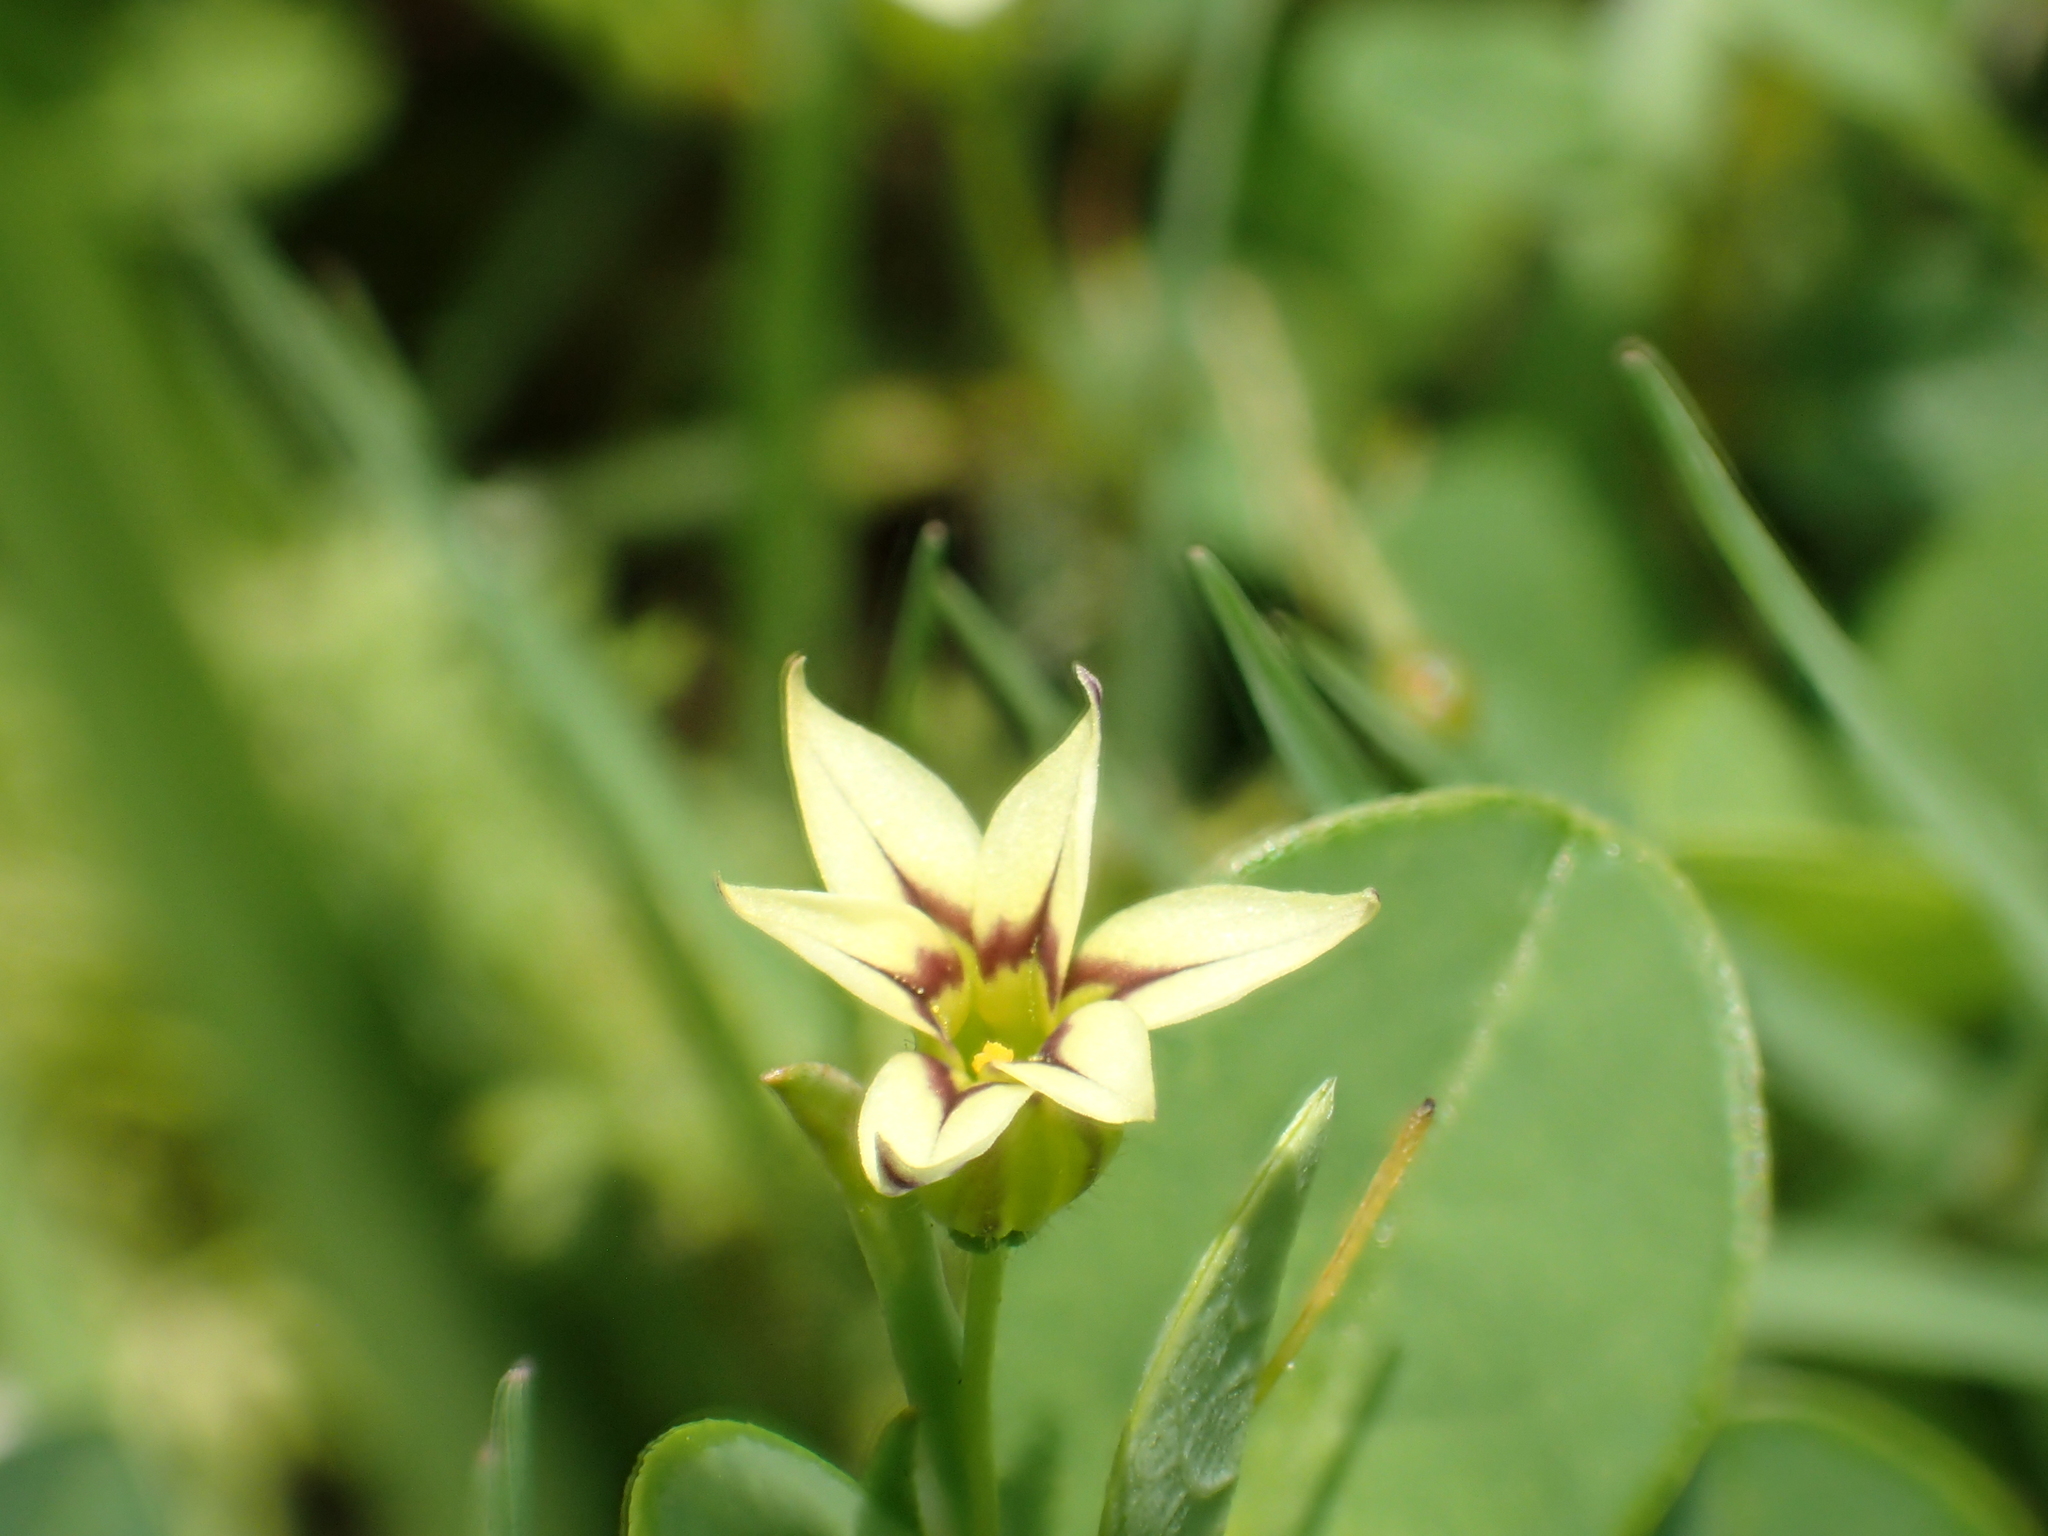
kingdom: Plantae
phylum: Tracheophyta
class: Liliopsida
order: Asparagales
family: Iridaceae
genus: Sisyrinchium
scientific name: Sisyrinchium micranthum
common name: Bermuda pigroot
